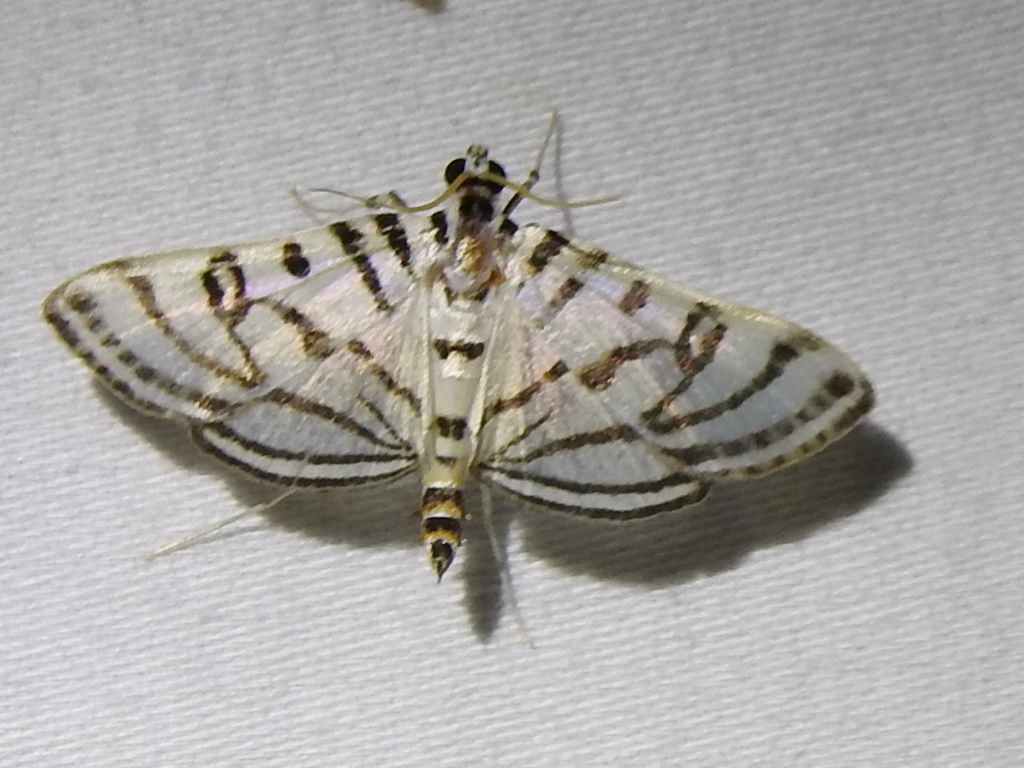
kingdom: Animalia
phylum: Arthropoda
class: Insecta
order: Lepidoptera
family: Crambidae
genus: Conchylodes
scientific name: Conchylodes ovulalis
